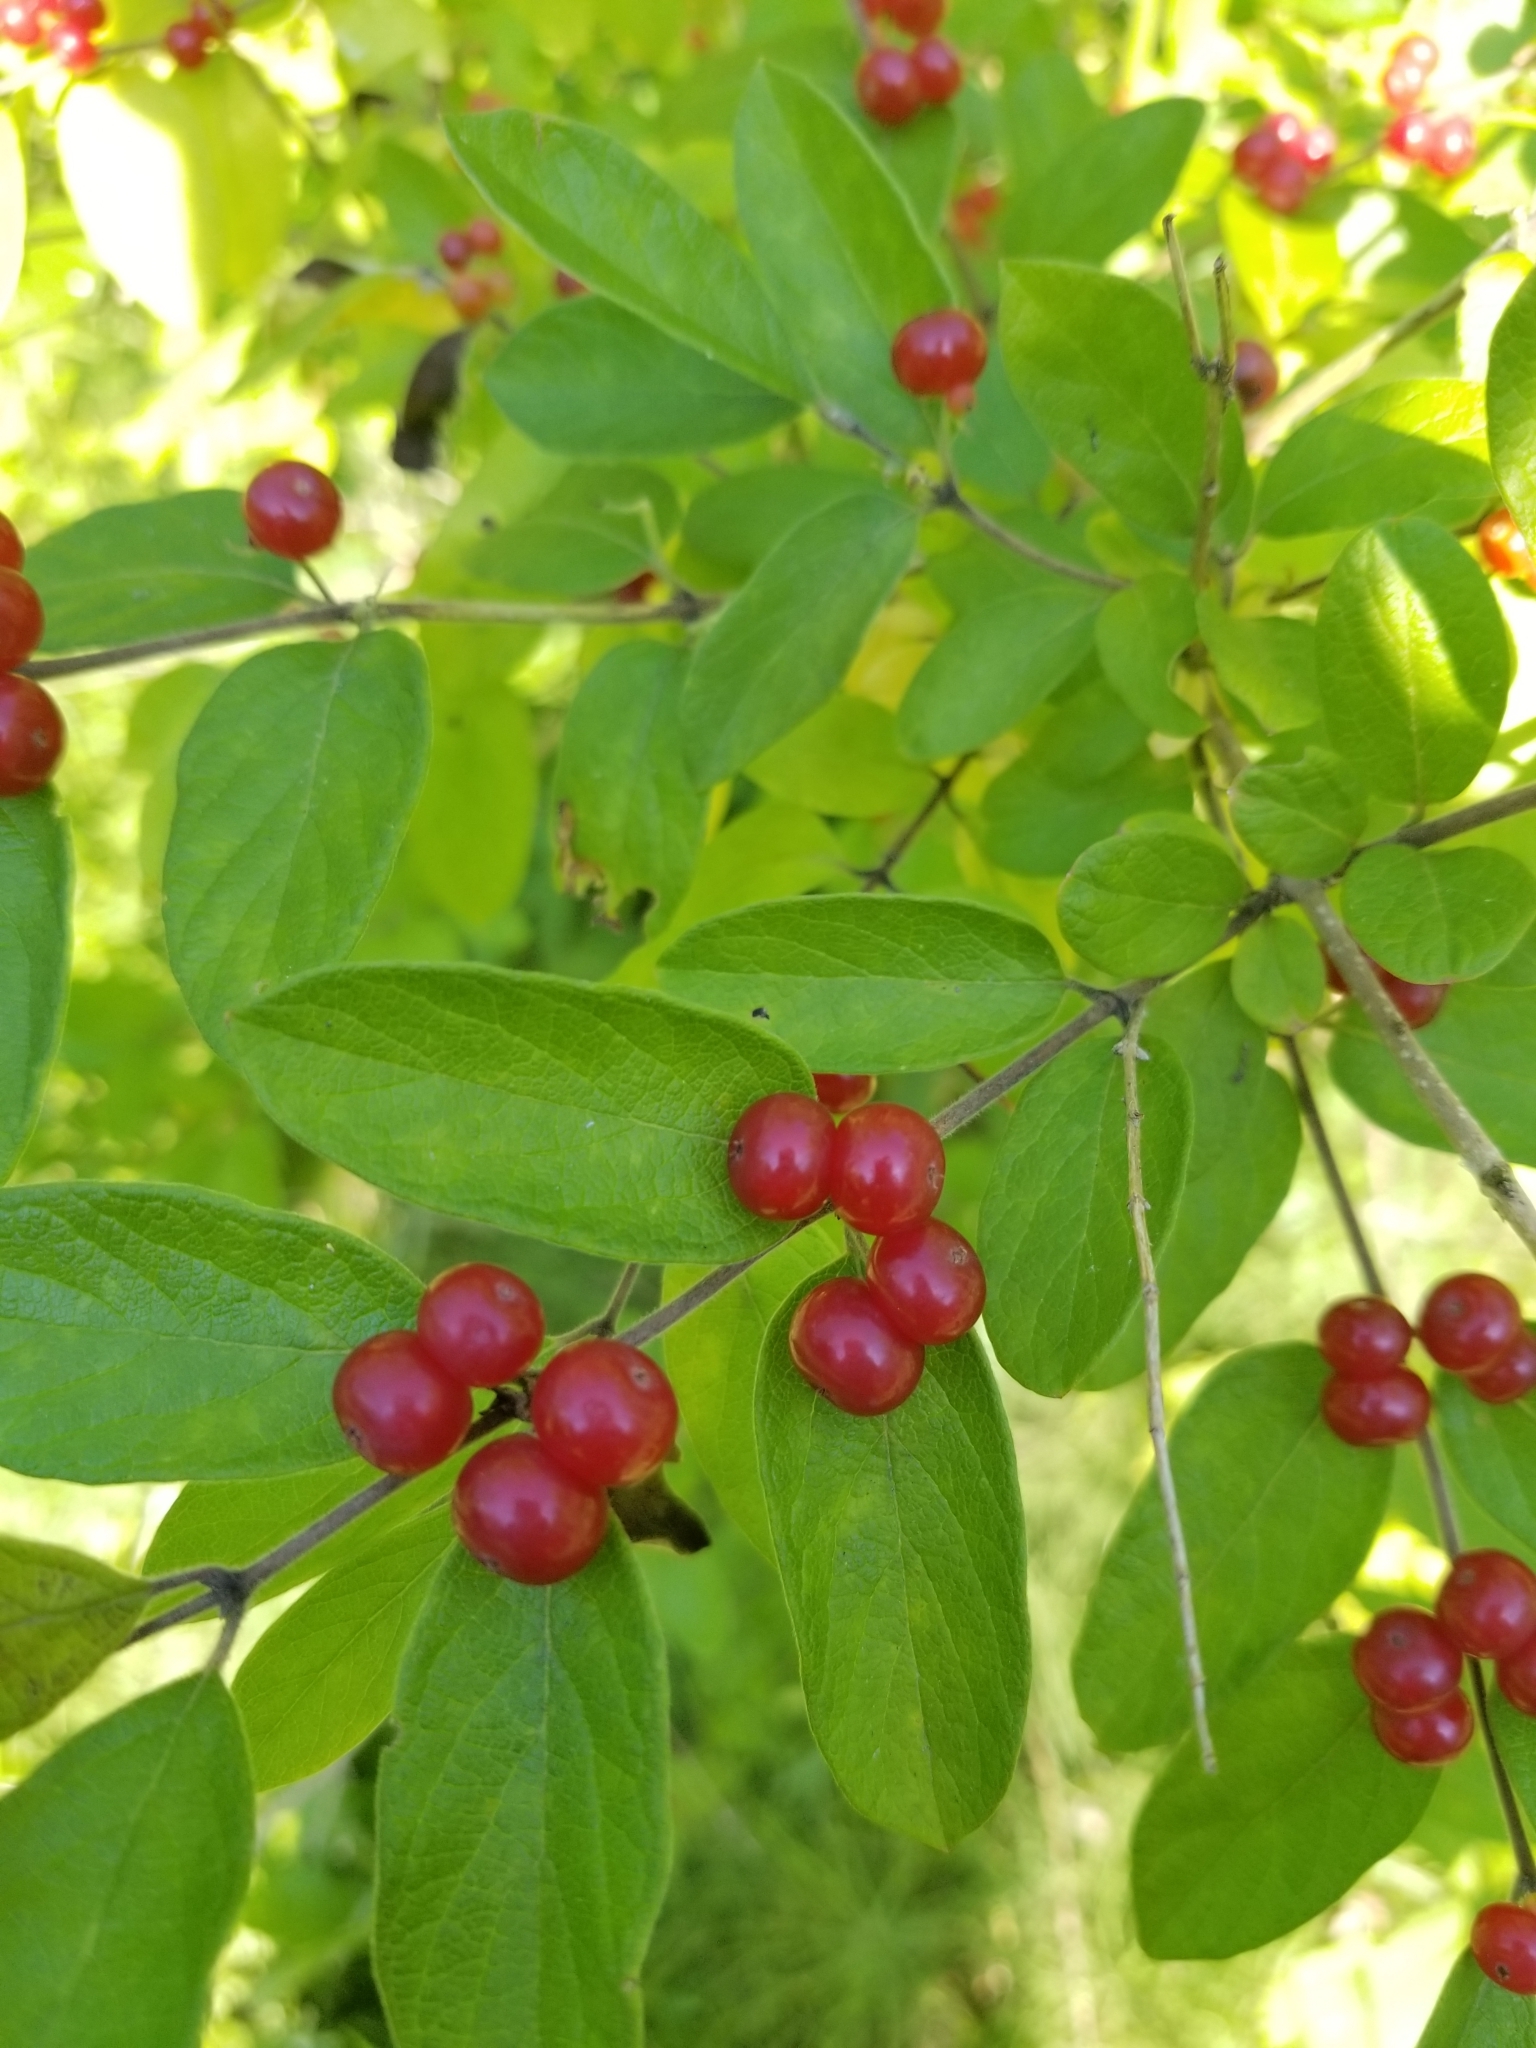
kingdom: Plantae
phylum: Tracheophyta
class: Magnoliopsida
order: Dipsacales
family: Caprifoliaceae
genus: Lonicera
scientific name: Lonicera morrowii
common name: Morrow's honeysuckle
